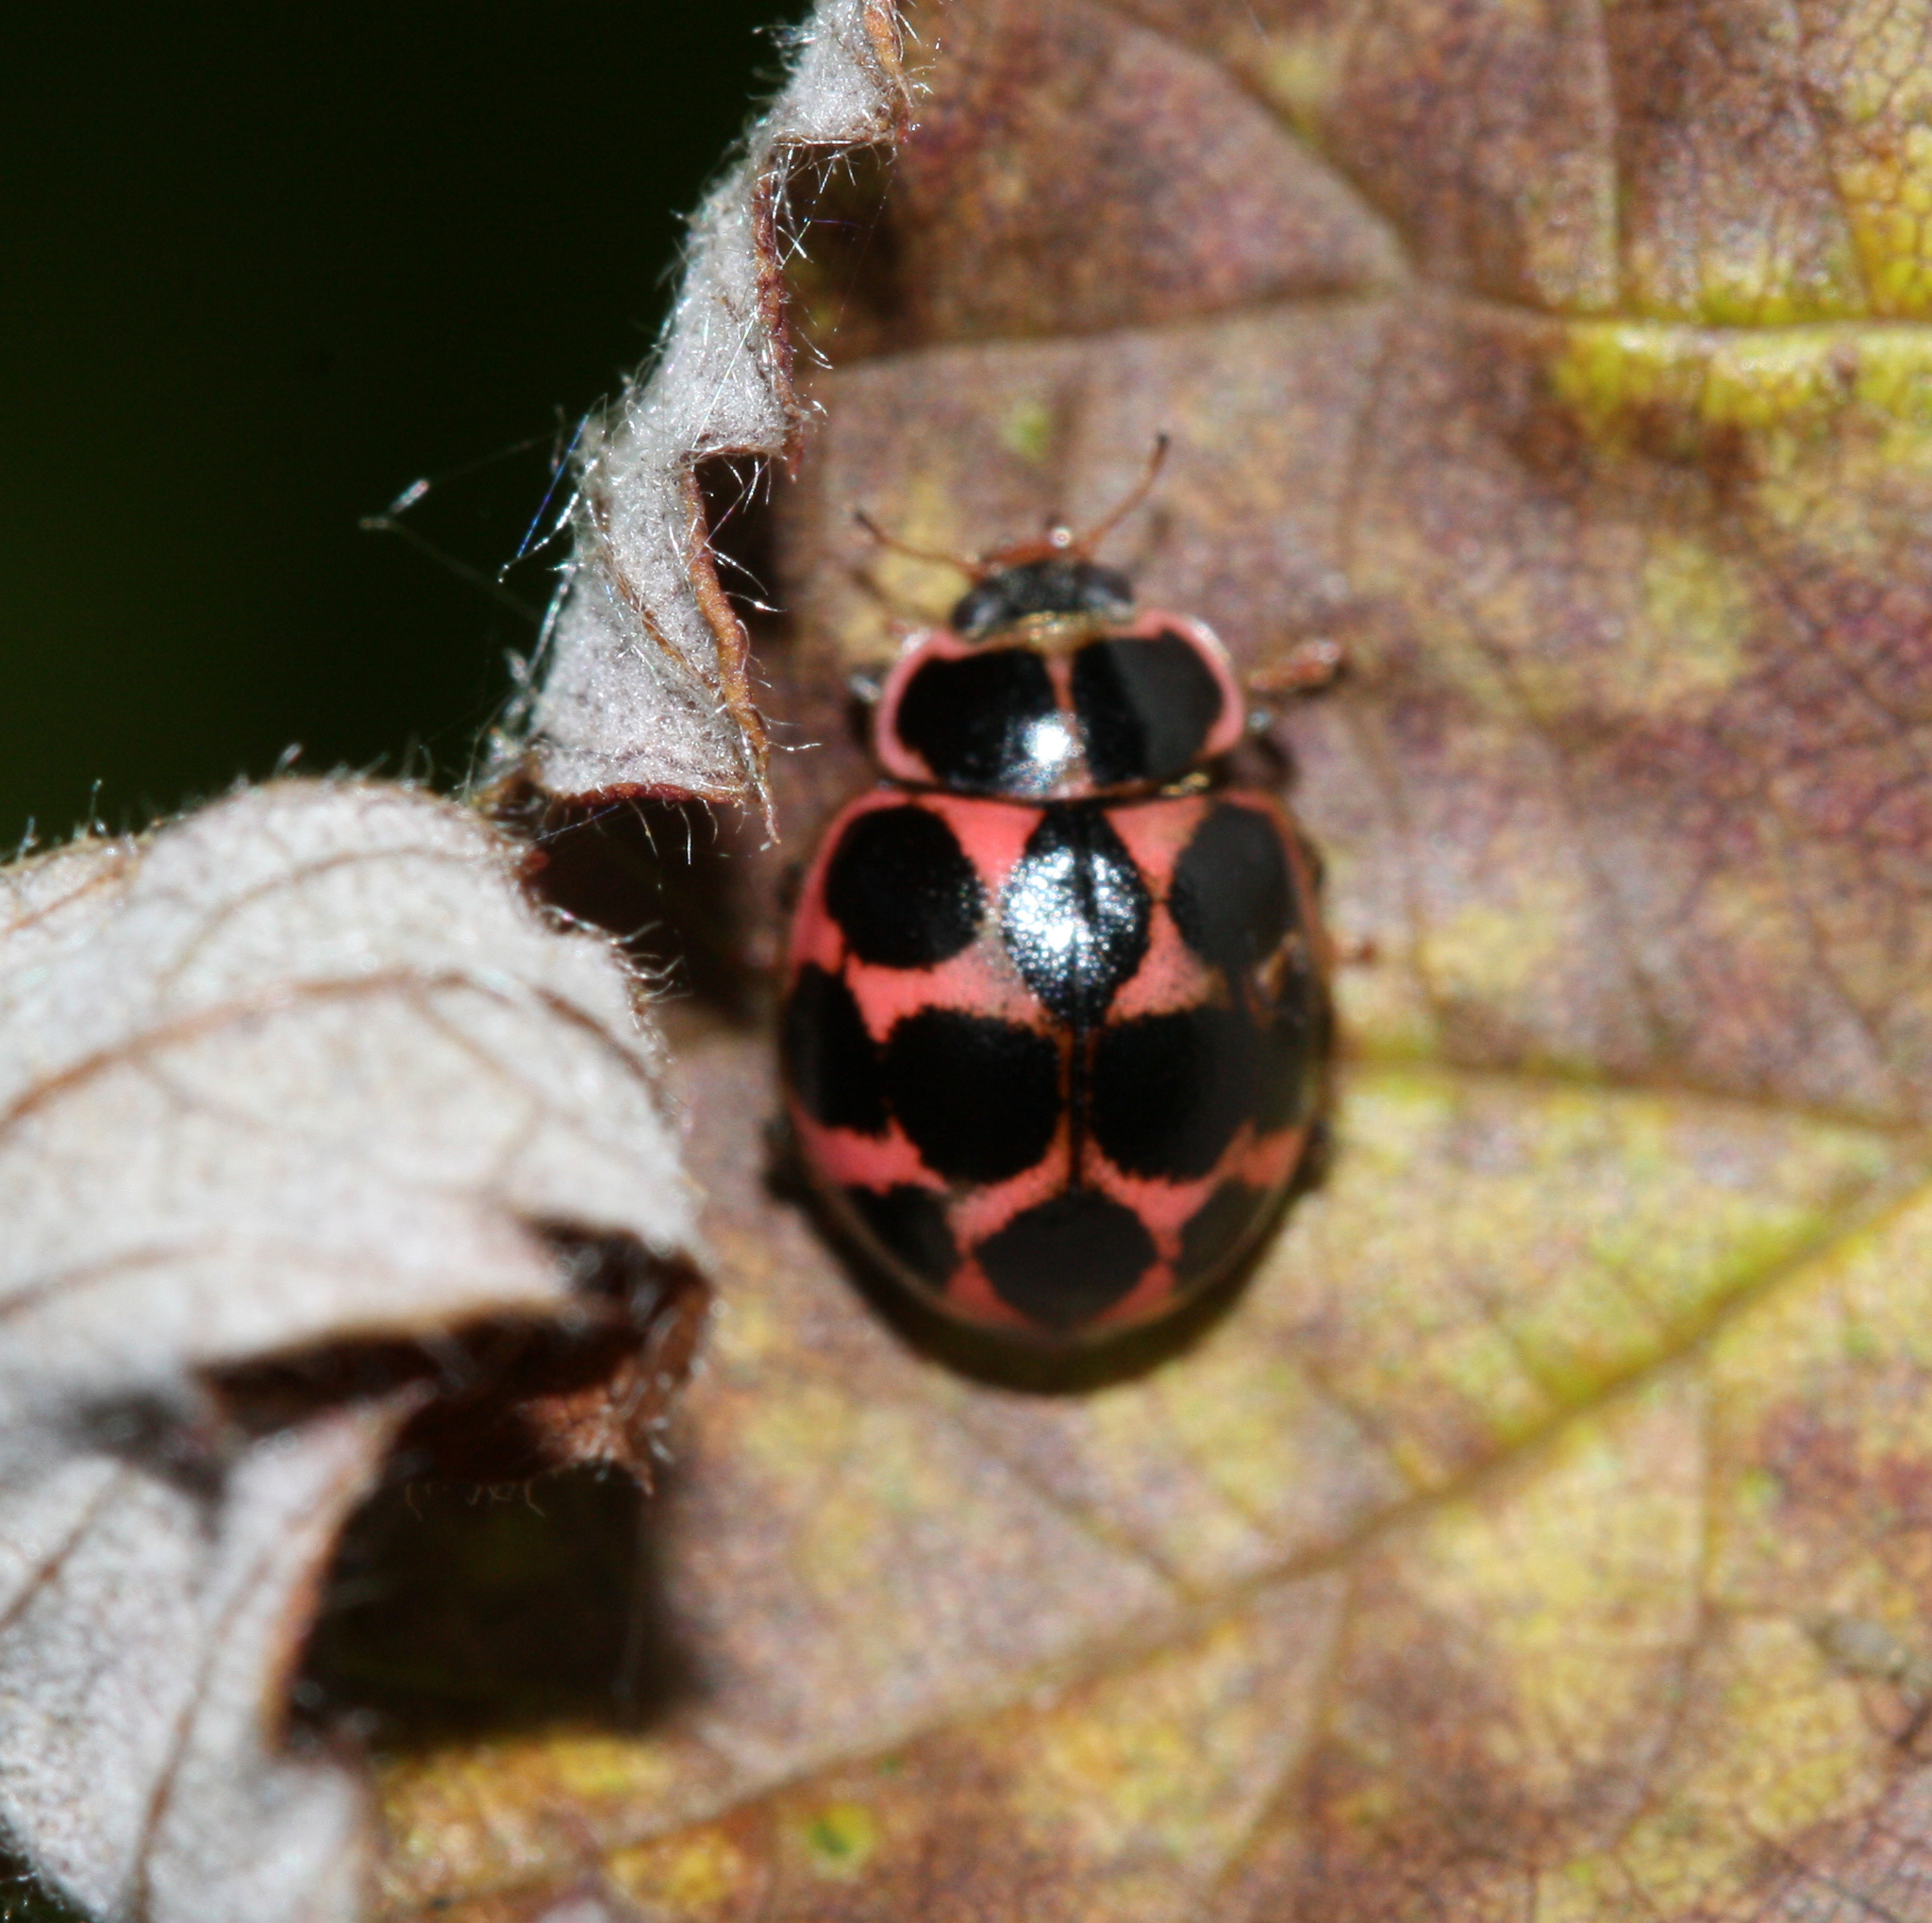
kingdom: Animalia
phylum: Arthropoda
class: Insecta
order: Coleoptera
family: Coccinellidae
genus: Calvia
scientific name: Calvia quatuordecimguttata
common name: Cream-spot ladybird
